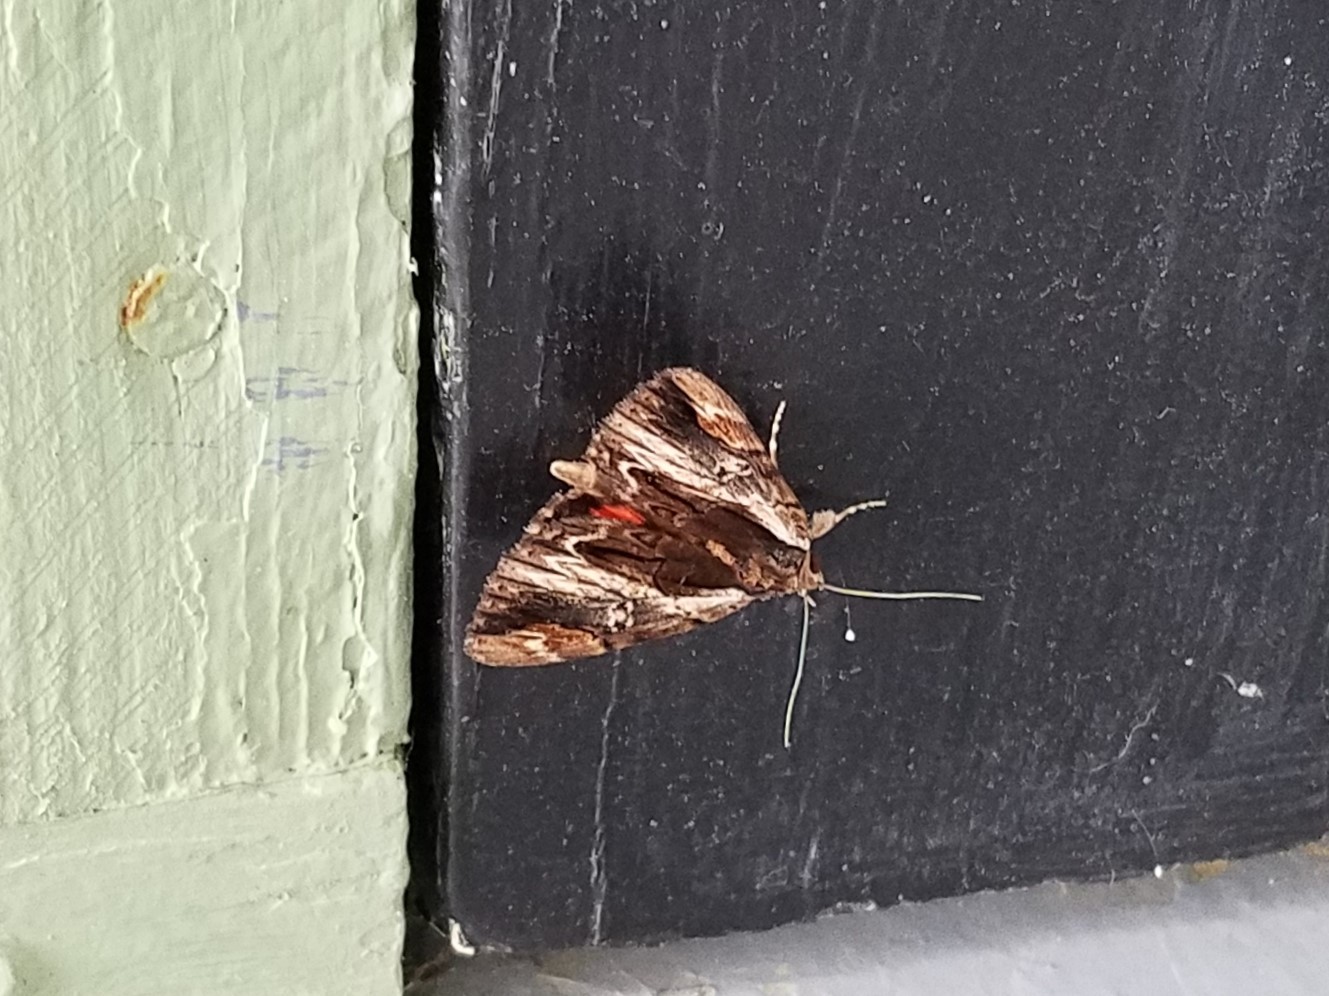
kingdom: Animalia
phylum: Arthropoda
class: Insecta
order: Lepidoptera
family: Erebidae
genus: Catocala
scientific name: Catocala ultronia
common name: Ultronia underwing
